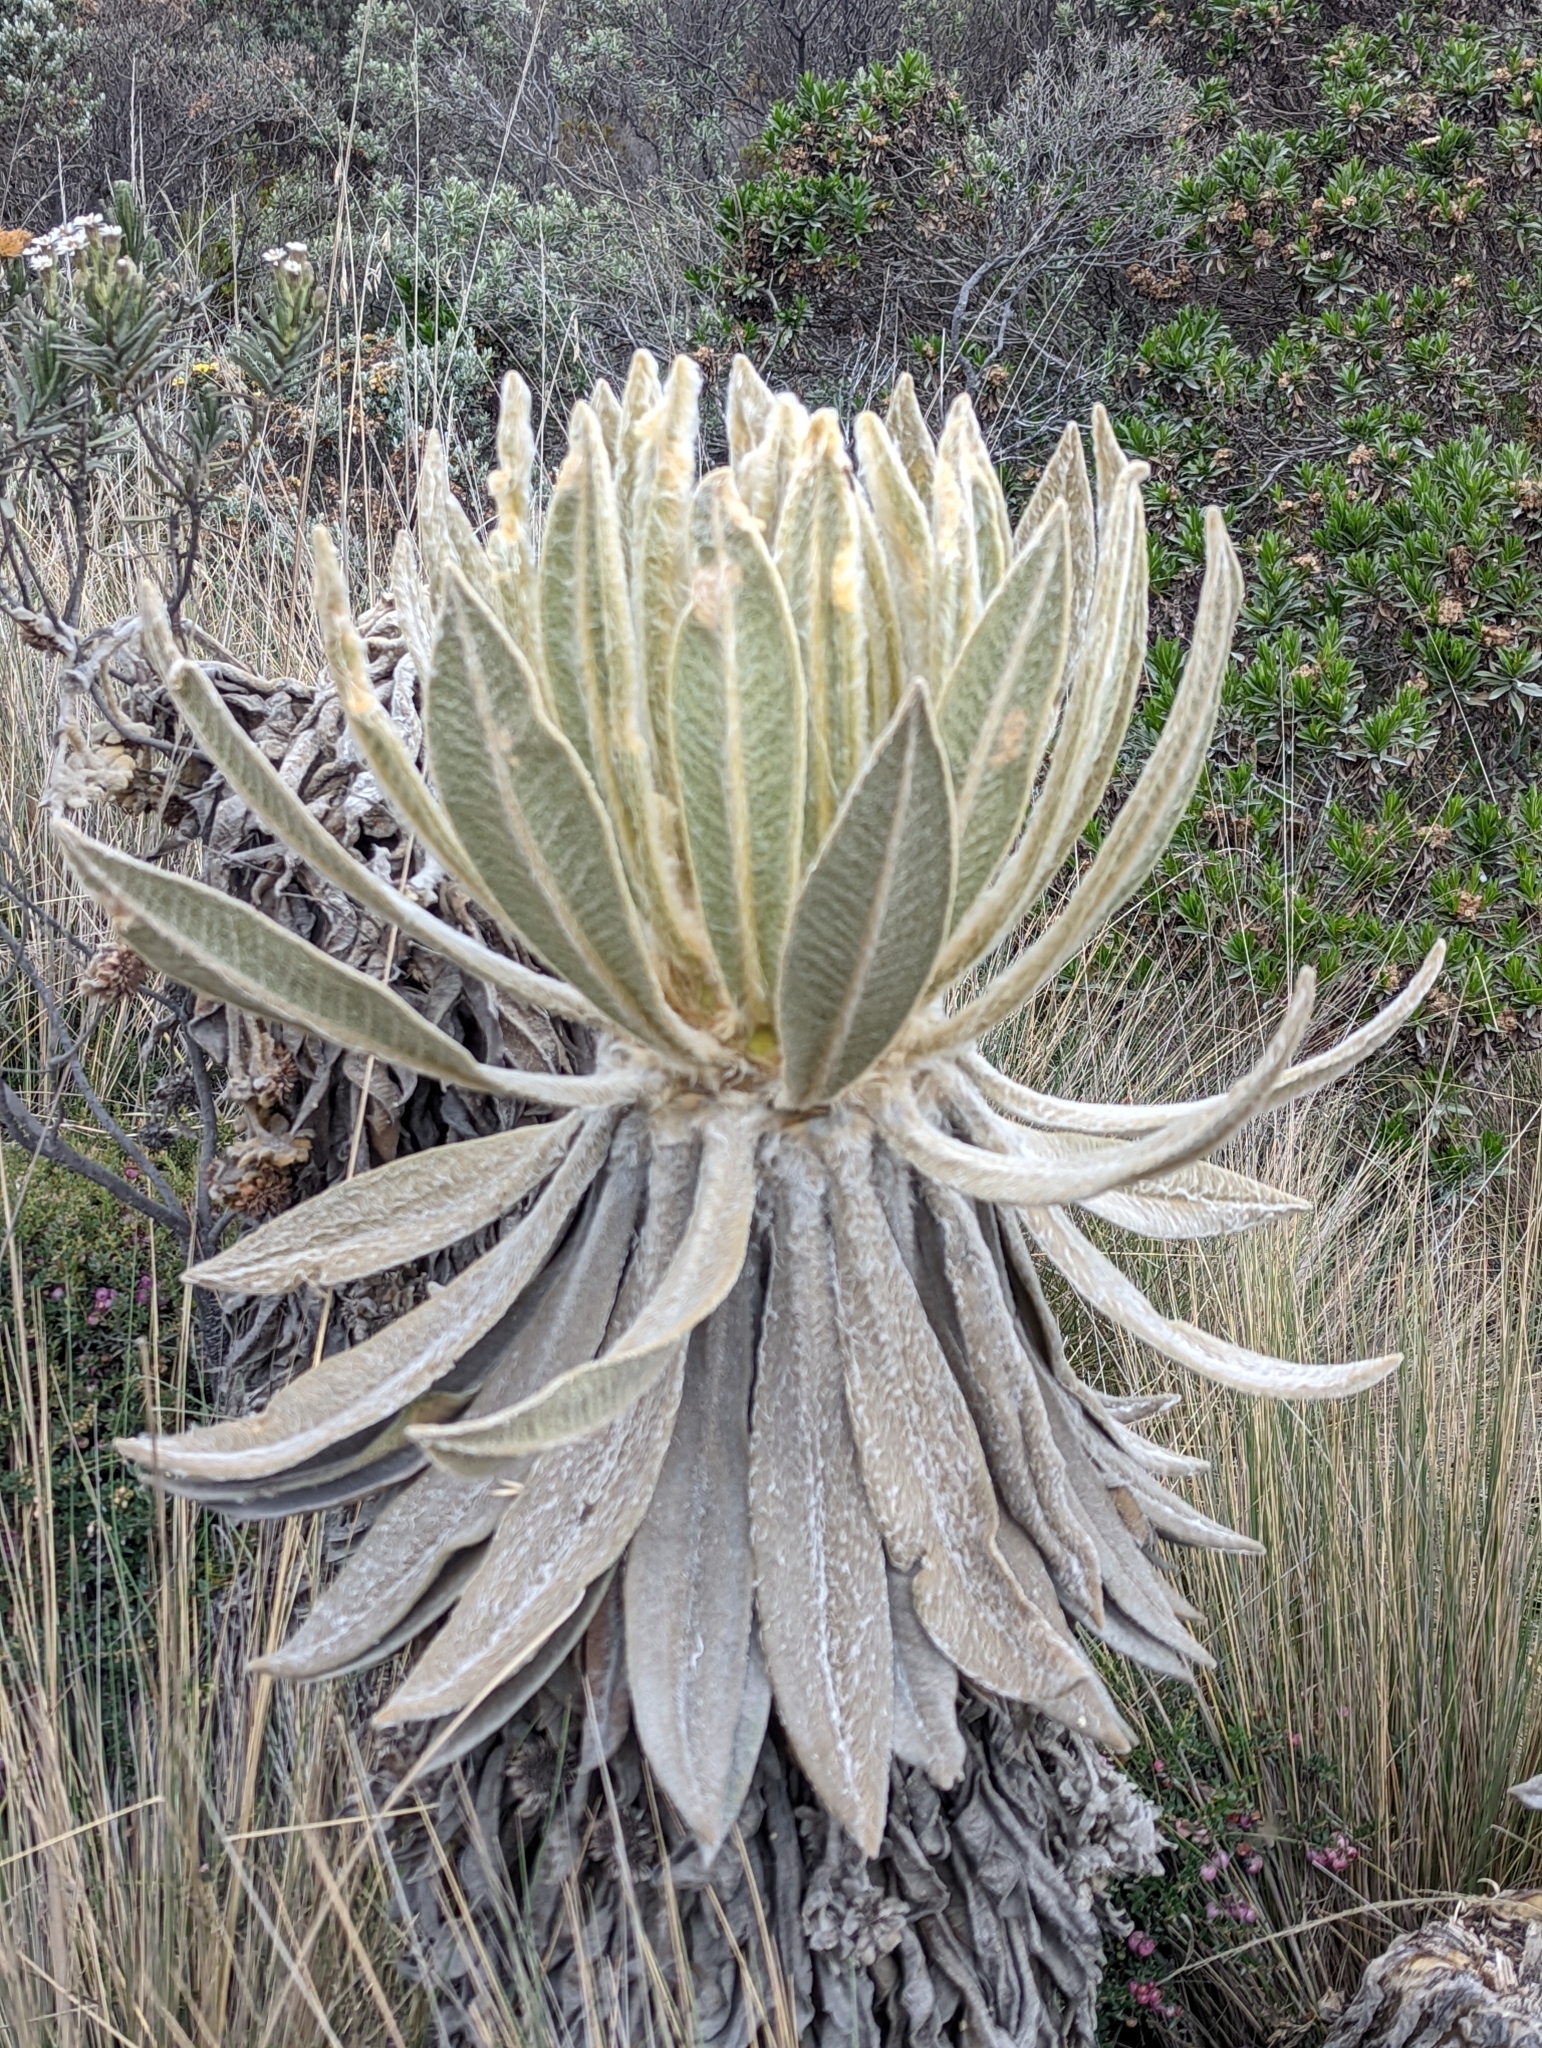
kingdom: Plantae
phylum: Tracheophyta
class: Magnoliopsida
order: Asterales
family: Asteraceae
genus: Espeletia
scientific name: Espeletia hartwegiana
